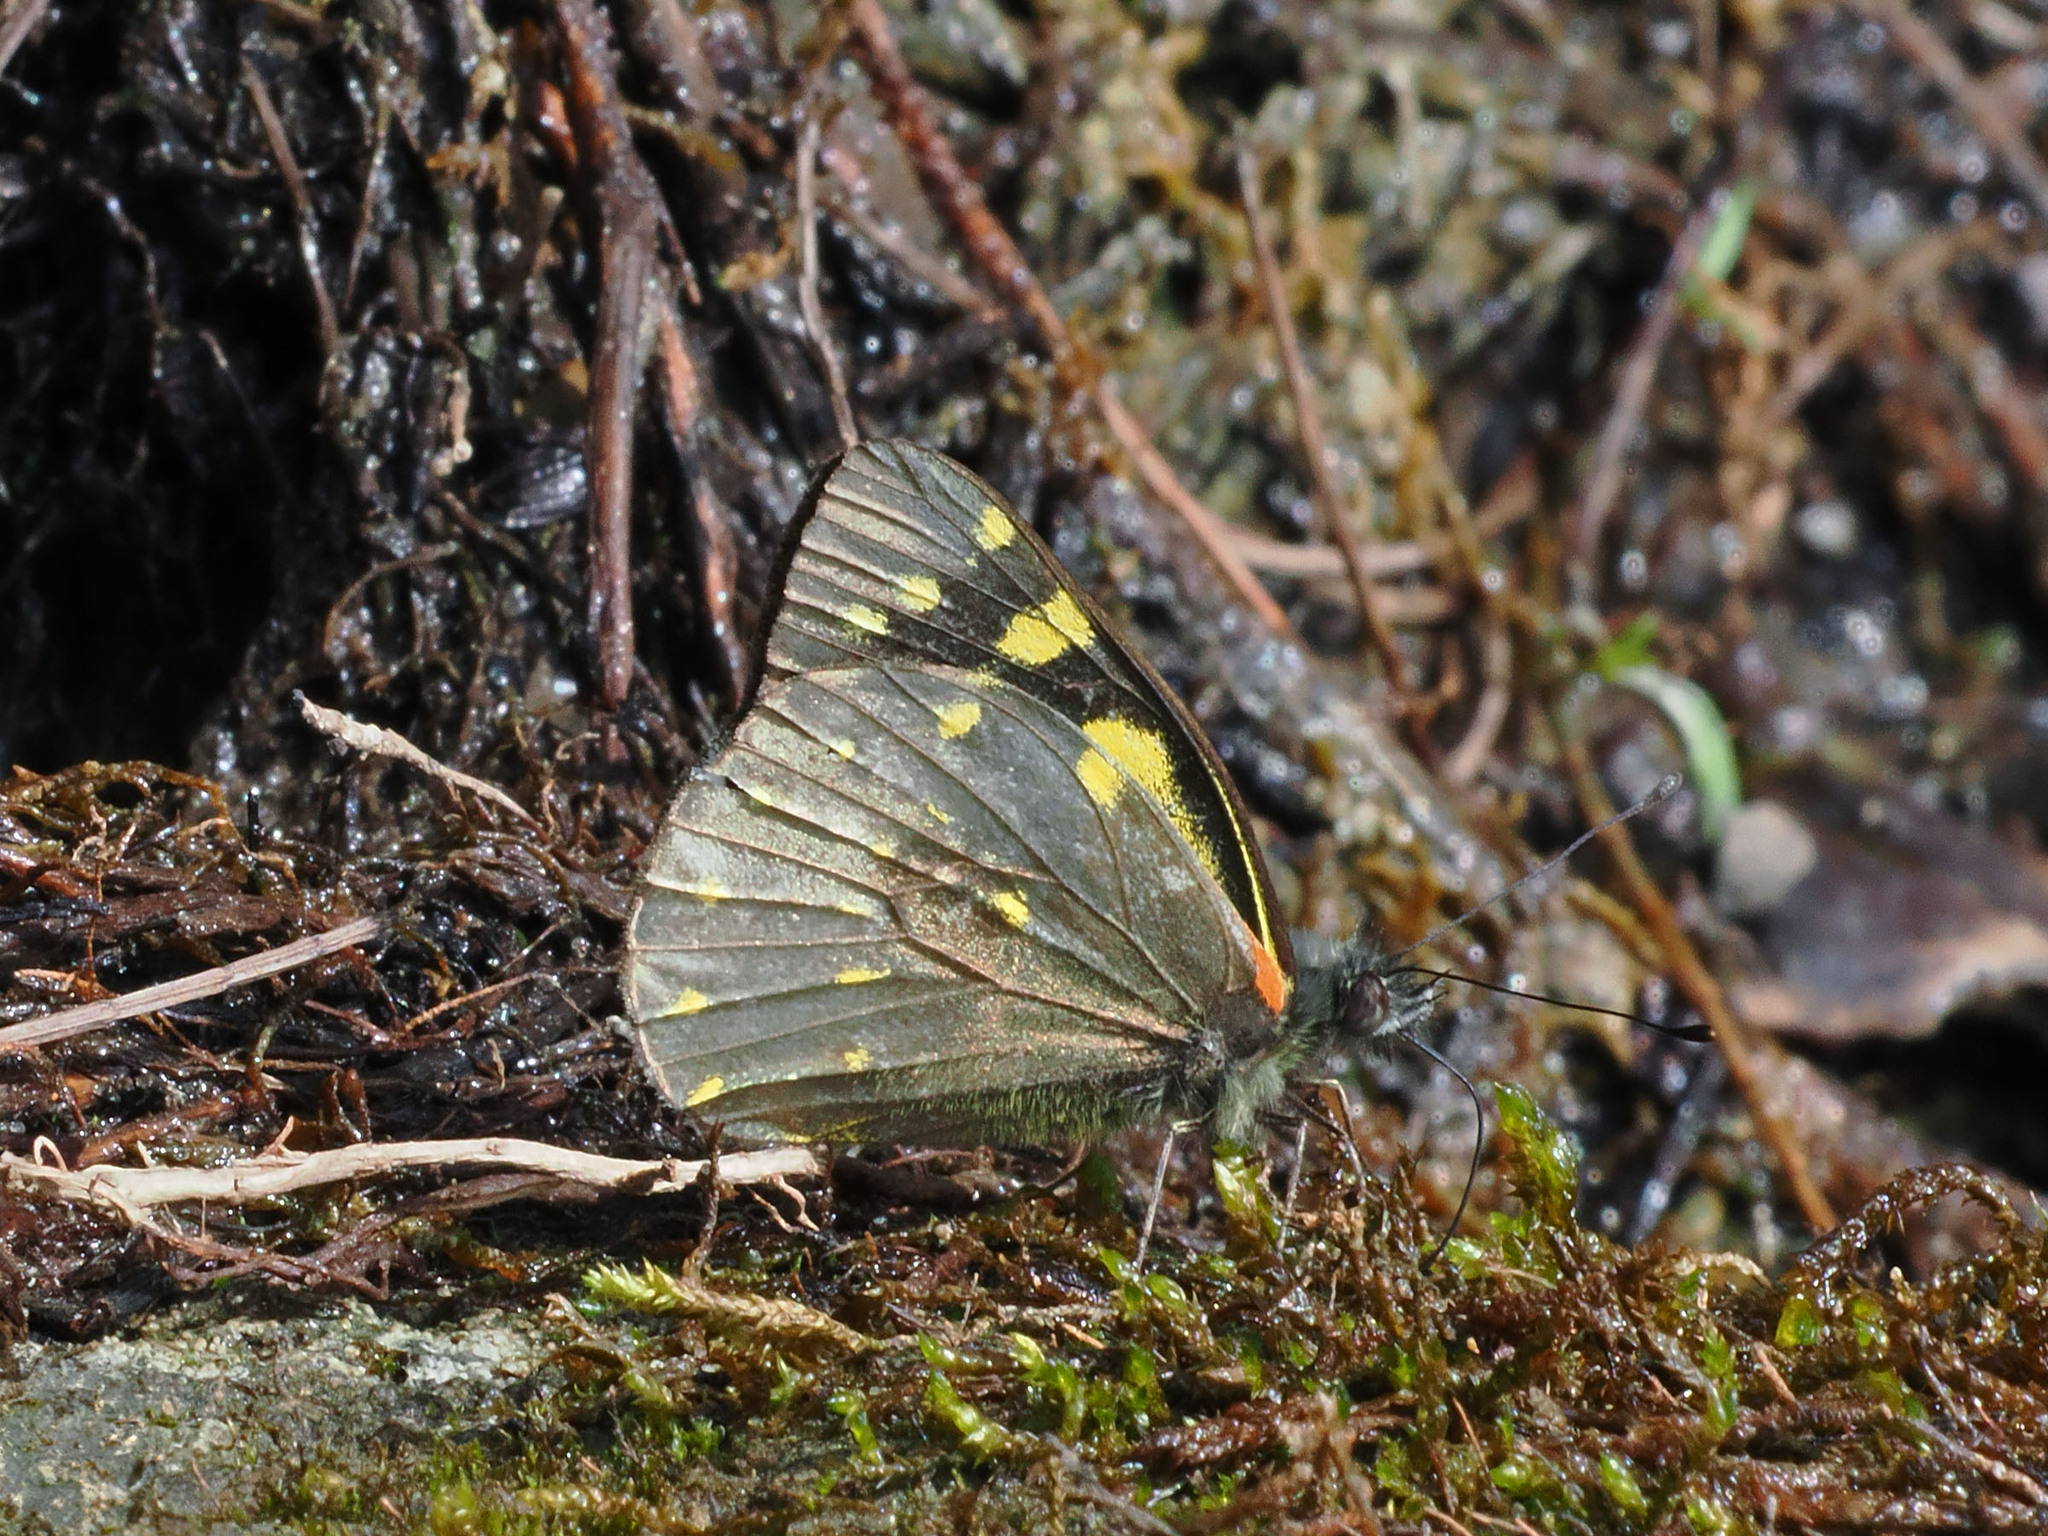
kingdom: Animalia
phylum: Arthropoda
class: Insecta
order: Lepidoptera
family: Pieridae
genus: Delias
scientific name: Delias microsticha
